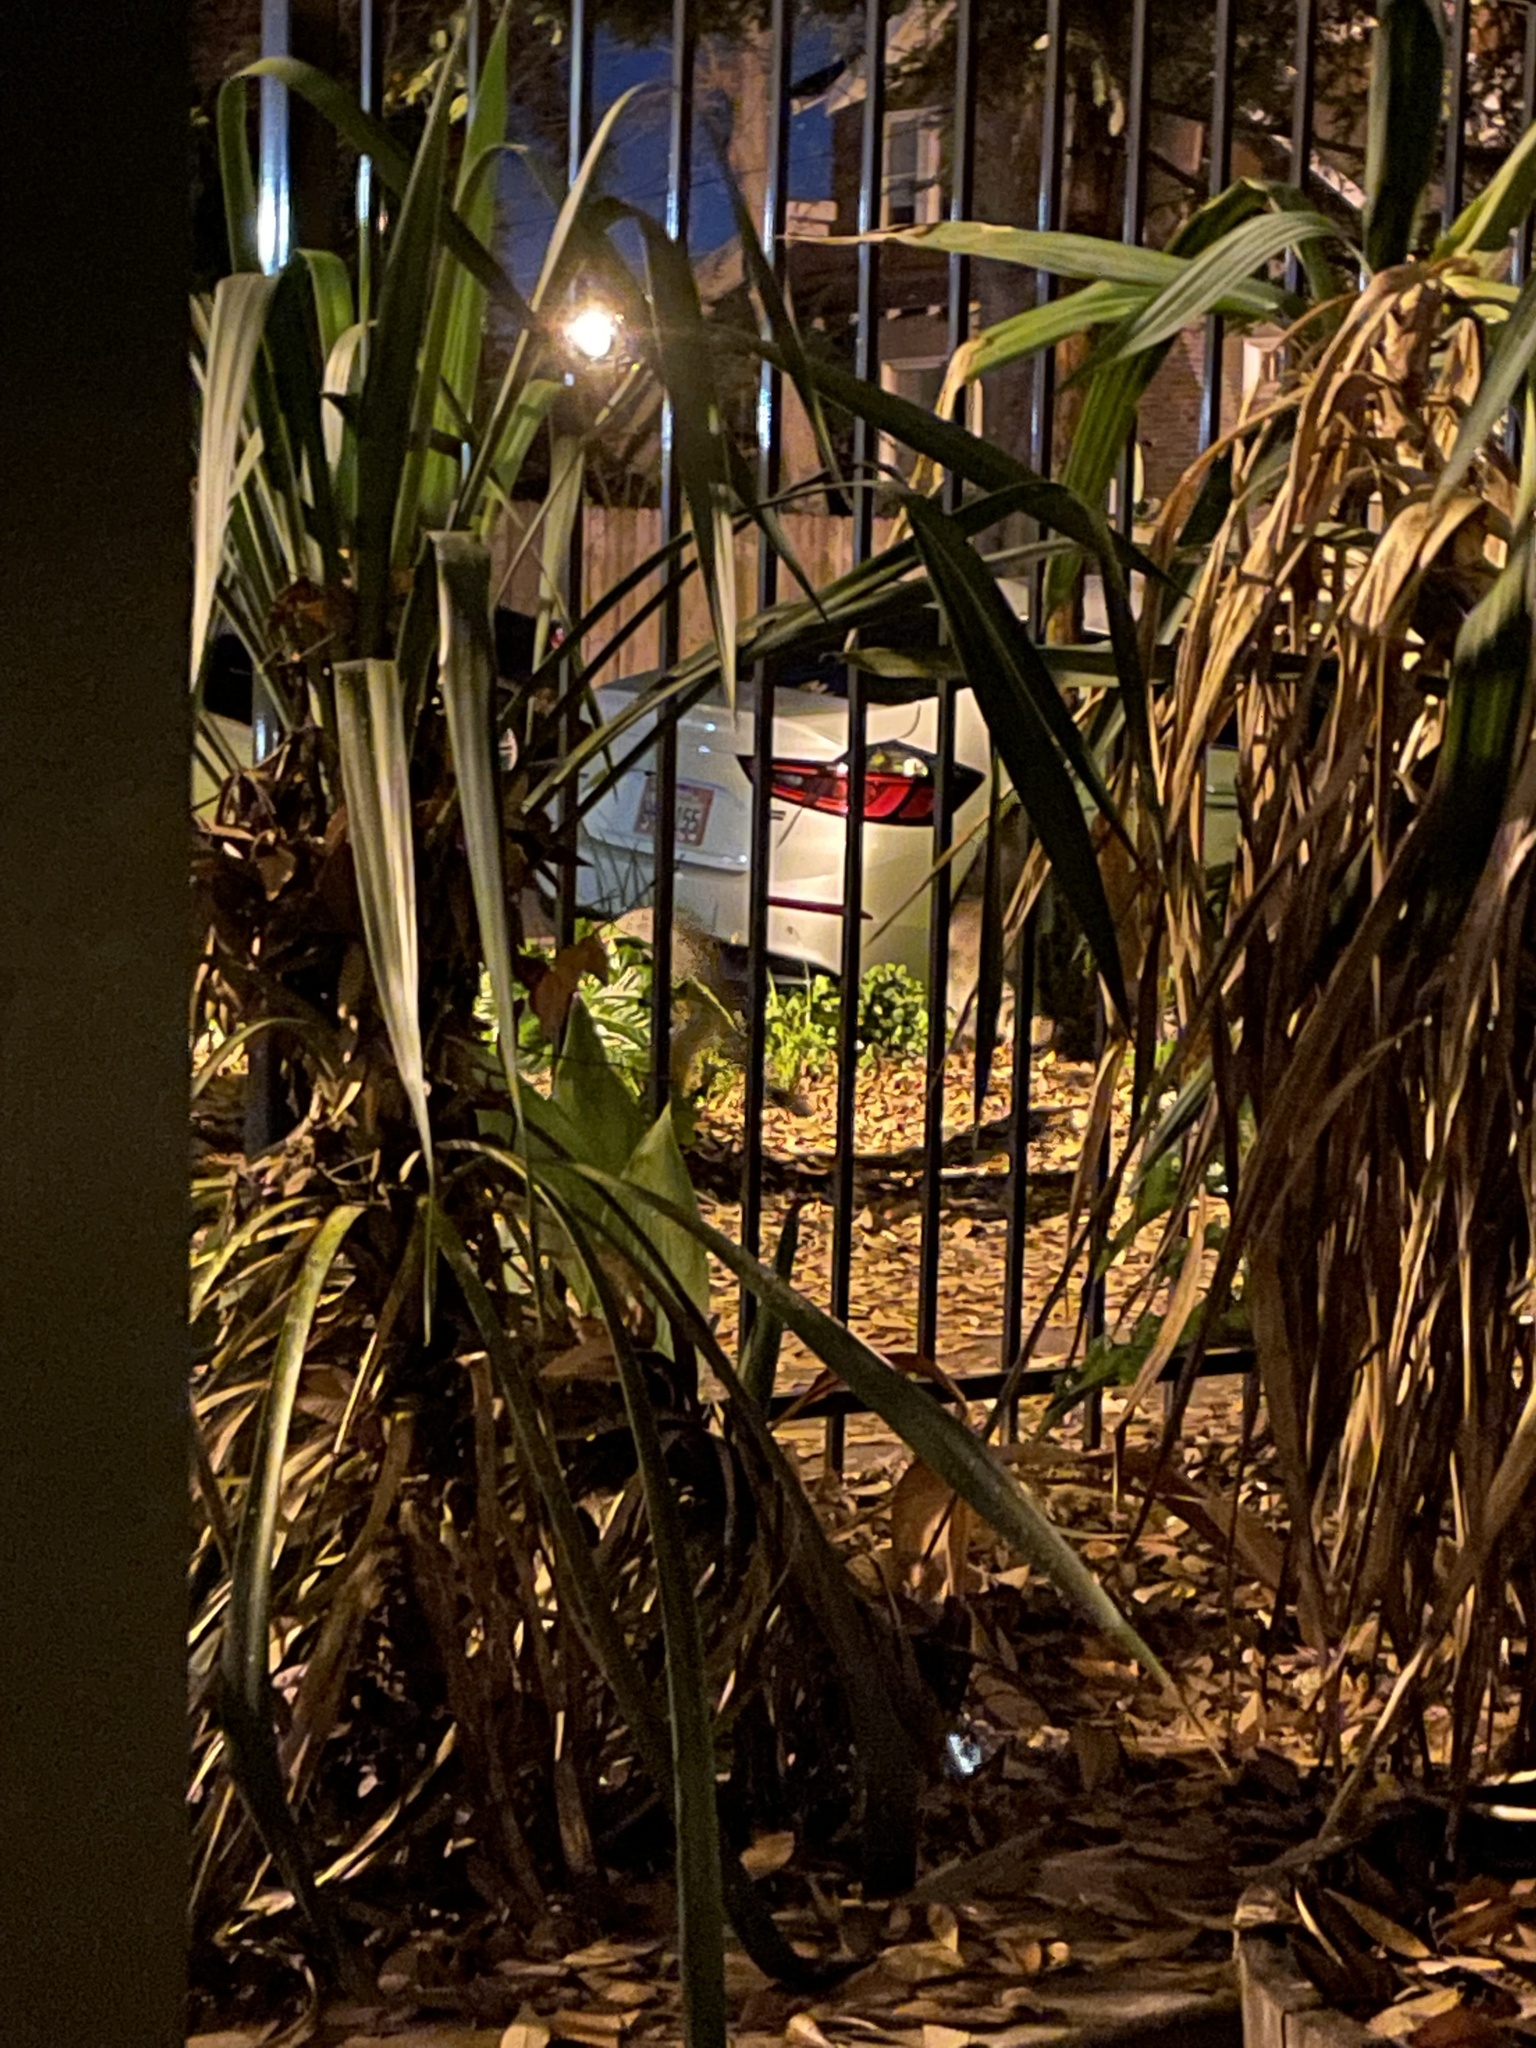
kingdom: Animalia
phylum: Chordata
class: Mammalia
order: Carnivora
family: Procyonidae
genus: Procyon
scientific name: Procyon lotor
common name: Raccoon
